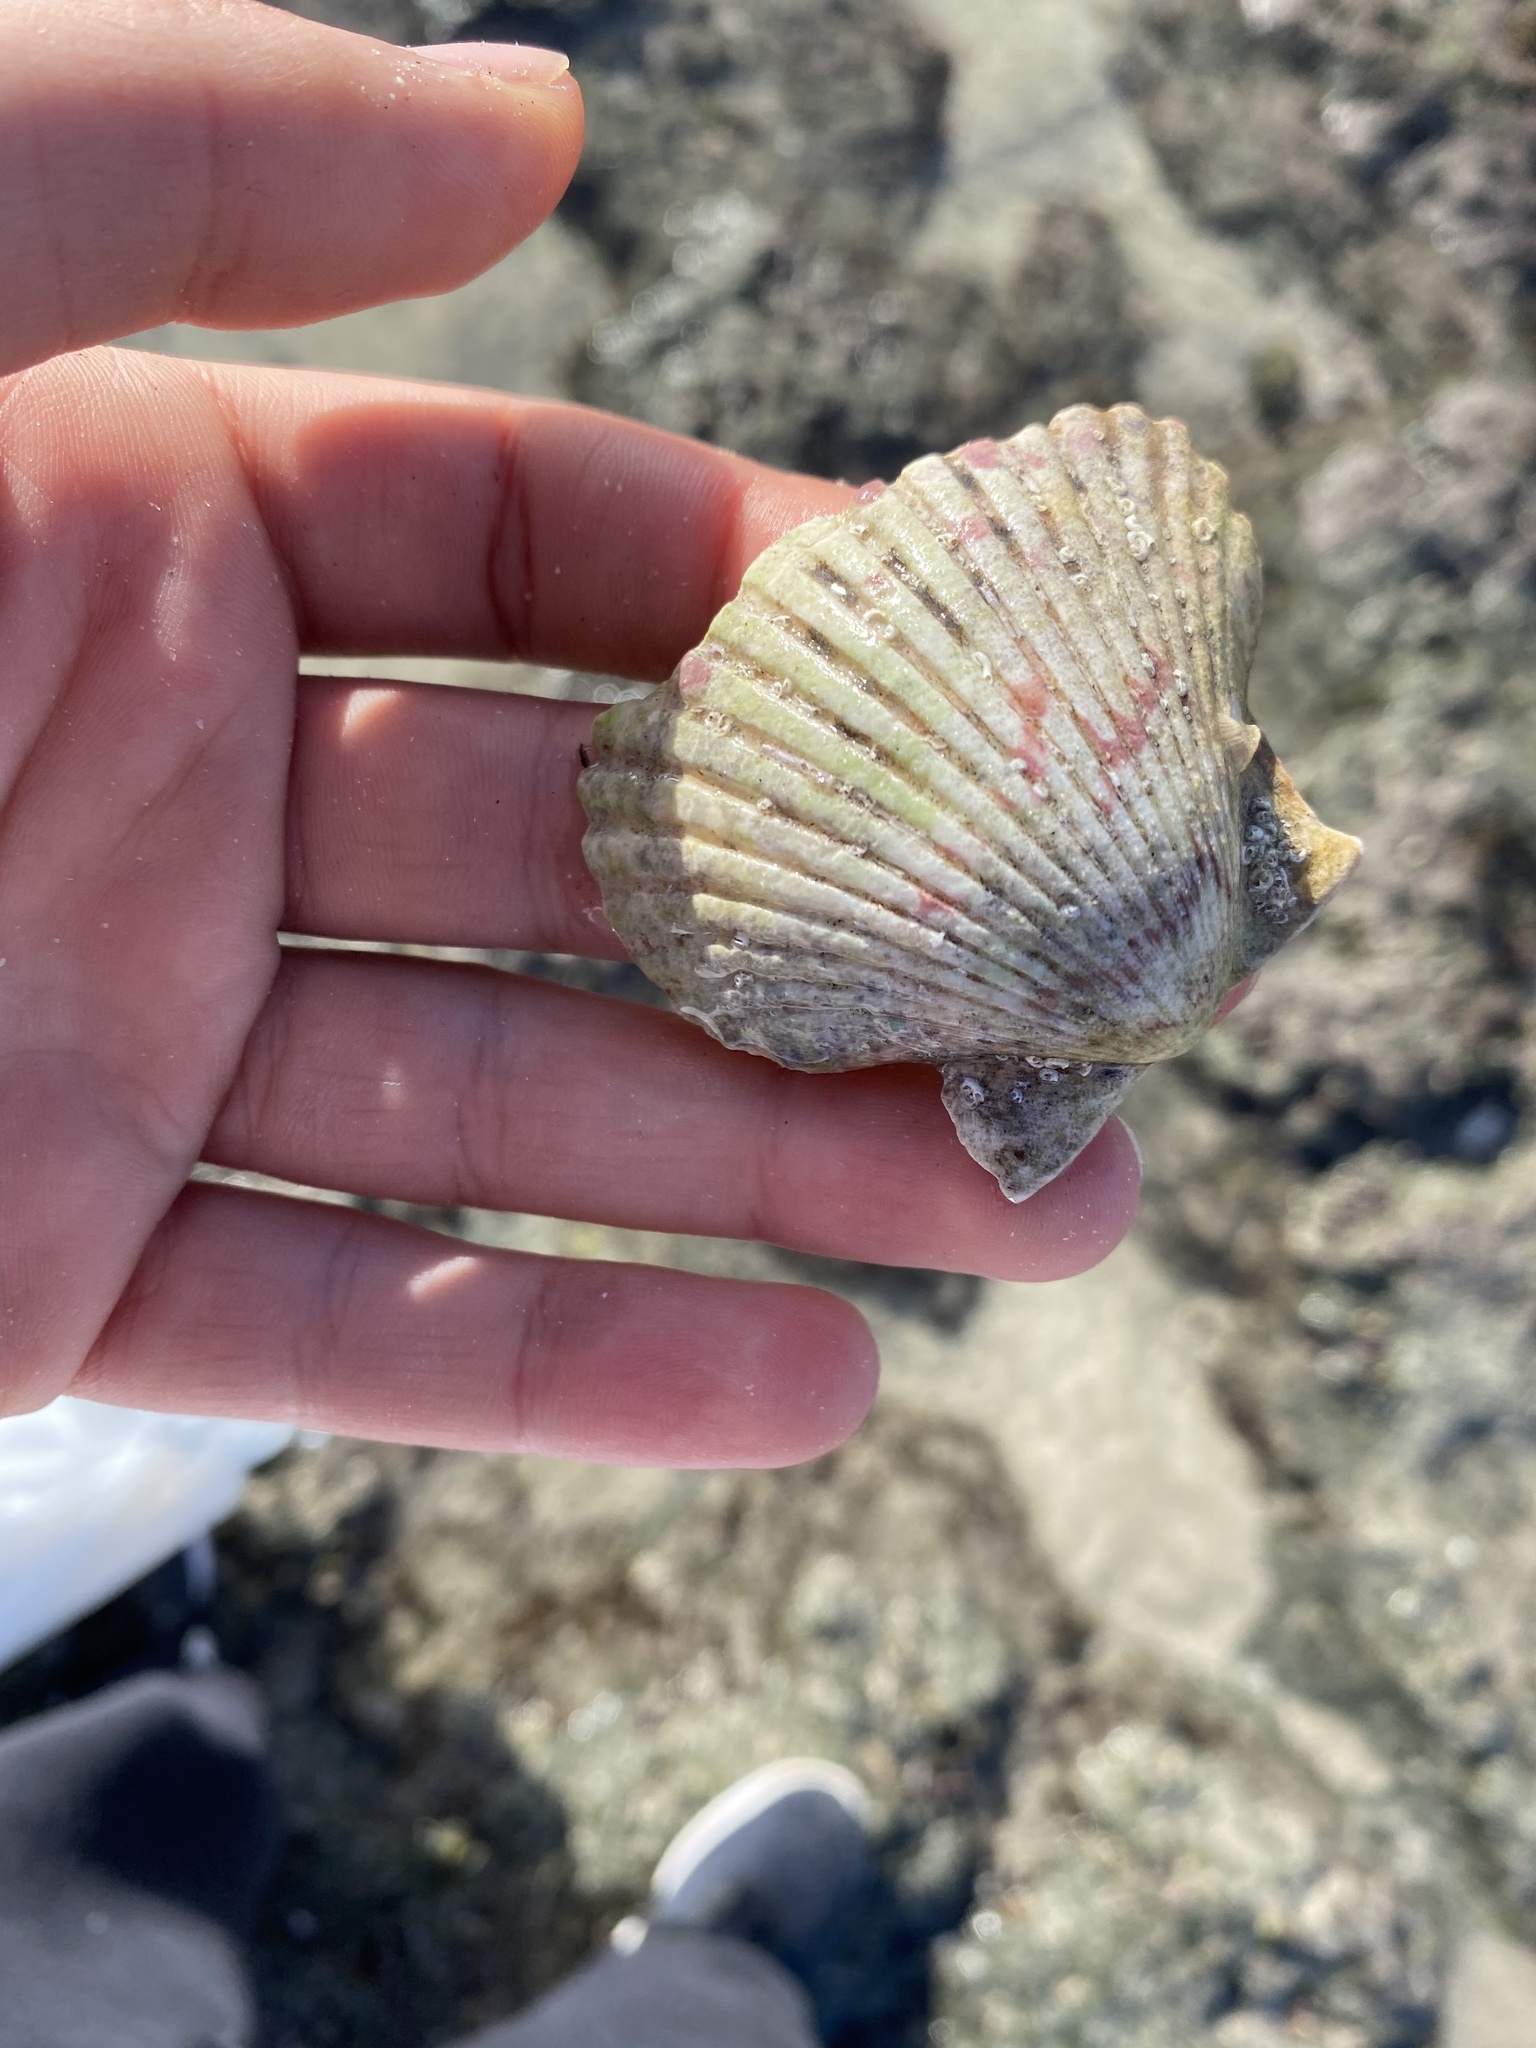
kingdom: Animalia
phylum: Mollusca
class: Bivalvia
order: Pectinida
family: Pectinidae
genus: Argopecten
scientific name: Argopecten ventricosus
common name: Catarina scallop
